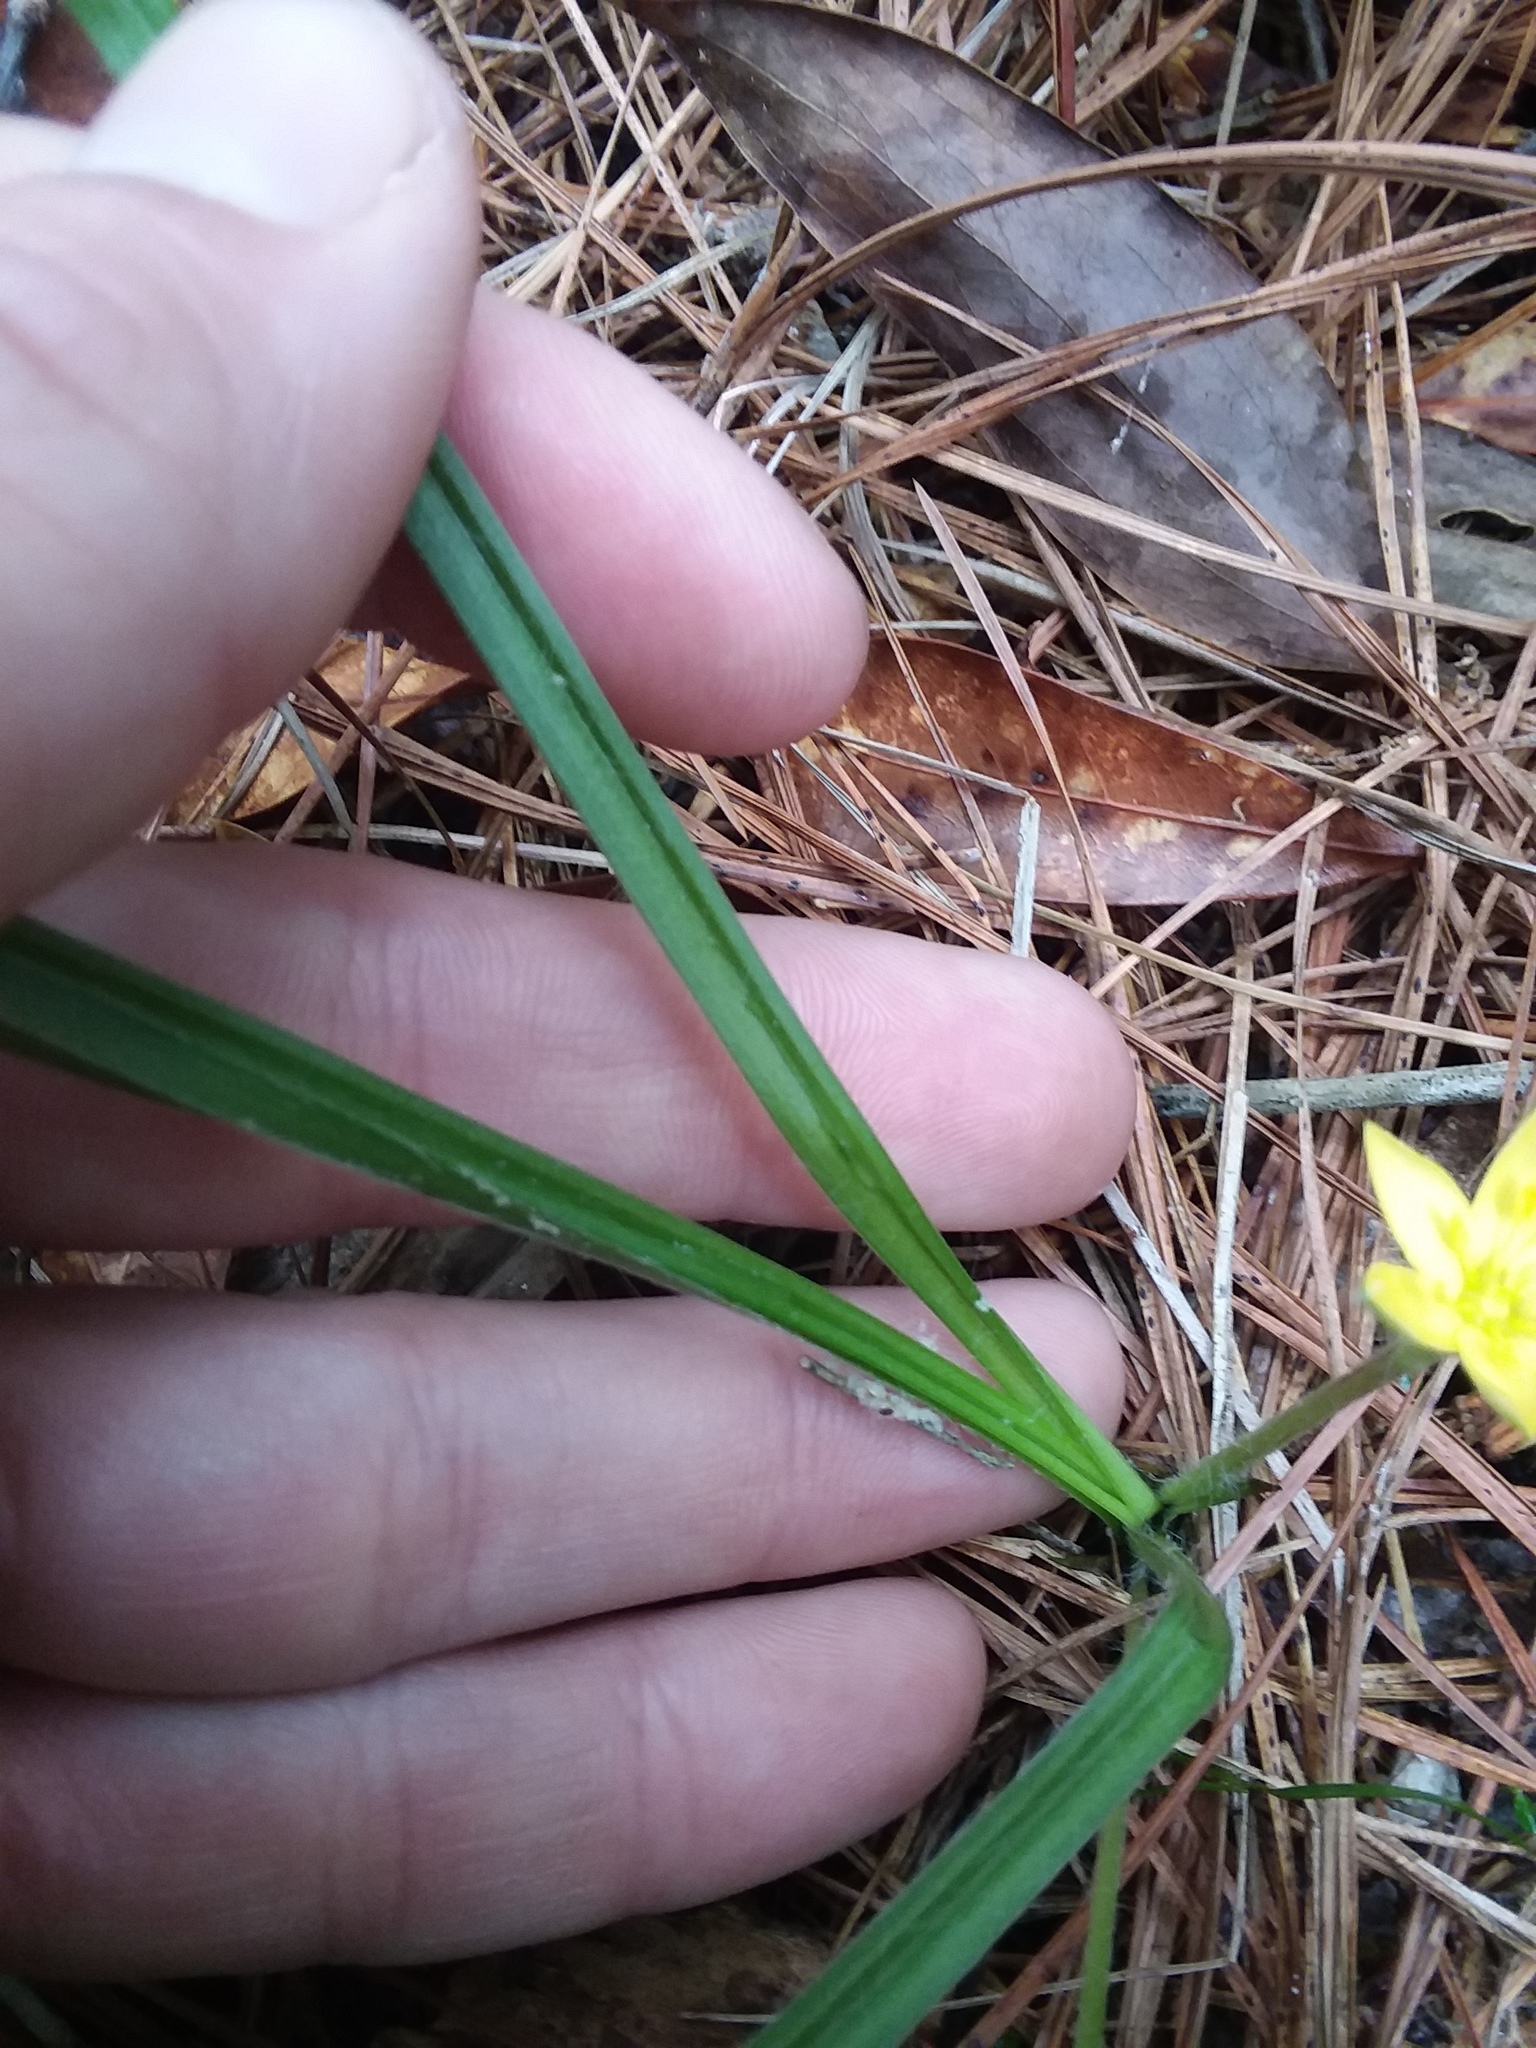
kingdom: Plantae
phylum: Tracheophyta
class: Liliopsida
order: Asparagales
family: Hypoxidaceae
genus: Hypoxis
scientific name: Hypoxis hirsuta
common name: Common goldstar
